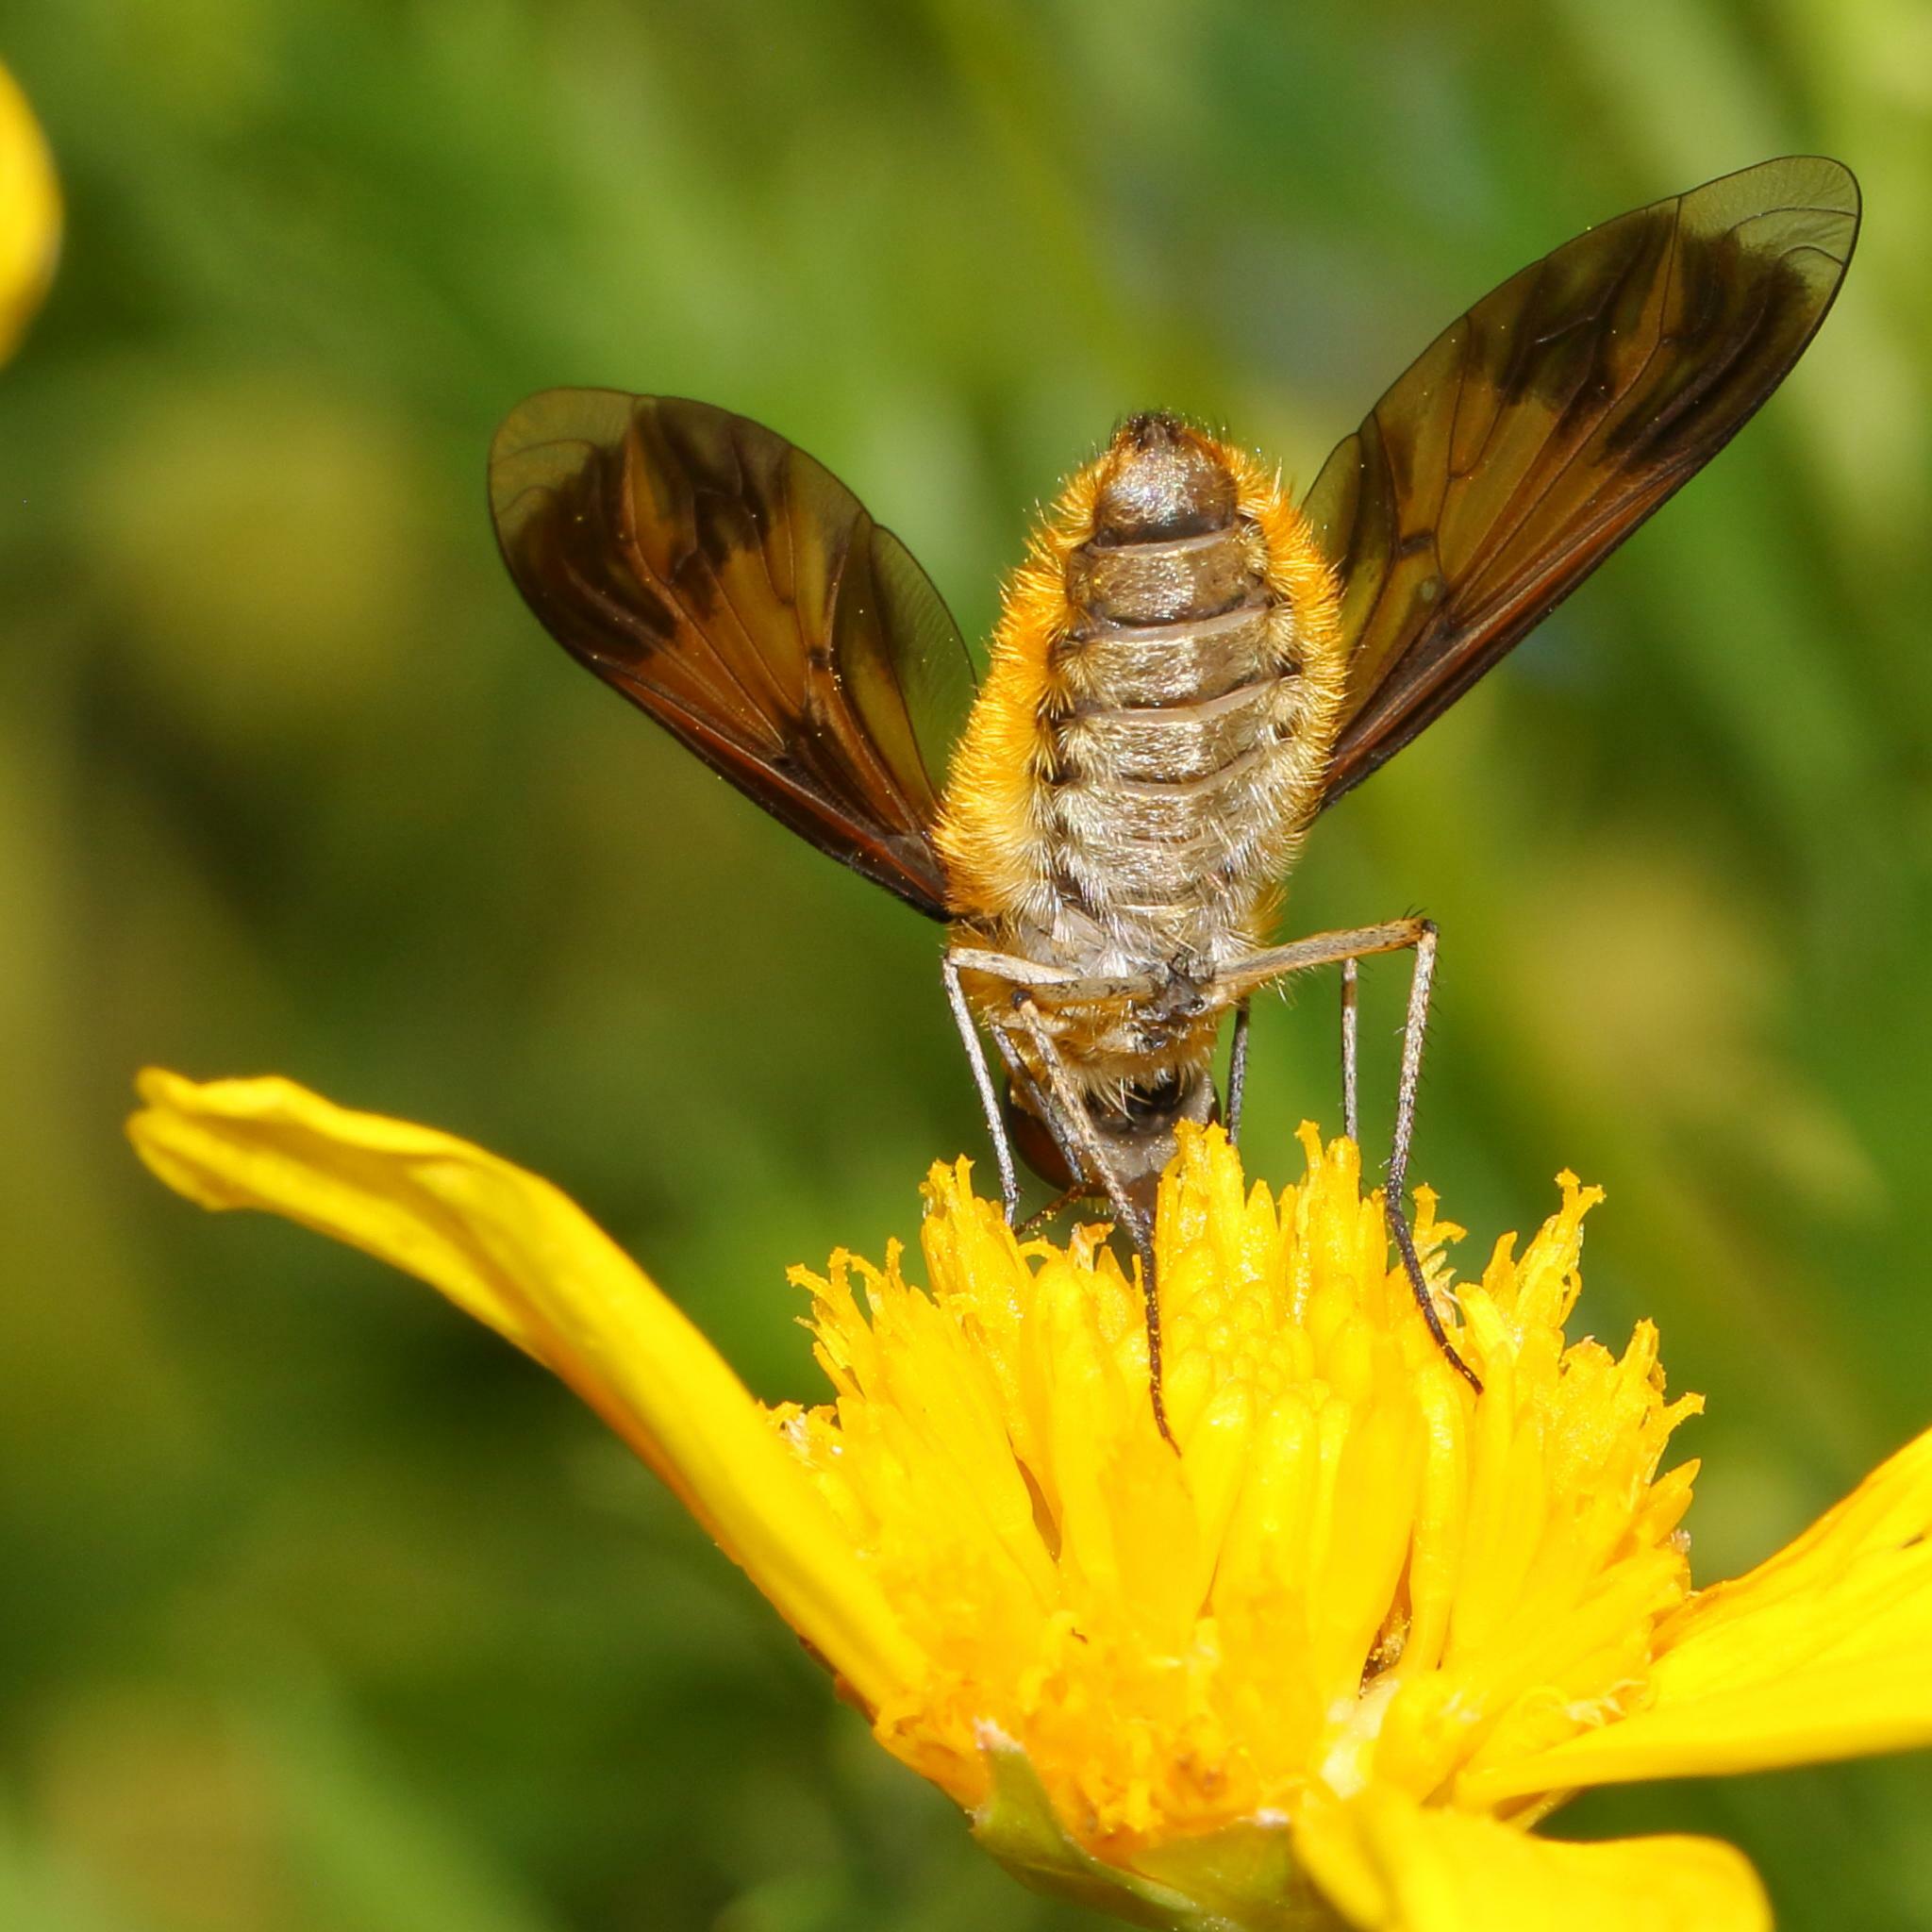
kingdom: Animalia
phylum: Arthropoda
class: Insecta
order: Diptera
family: Bombyliidae
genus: Notolomatia
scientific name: Notolomatia pictipennis
